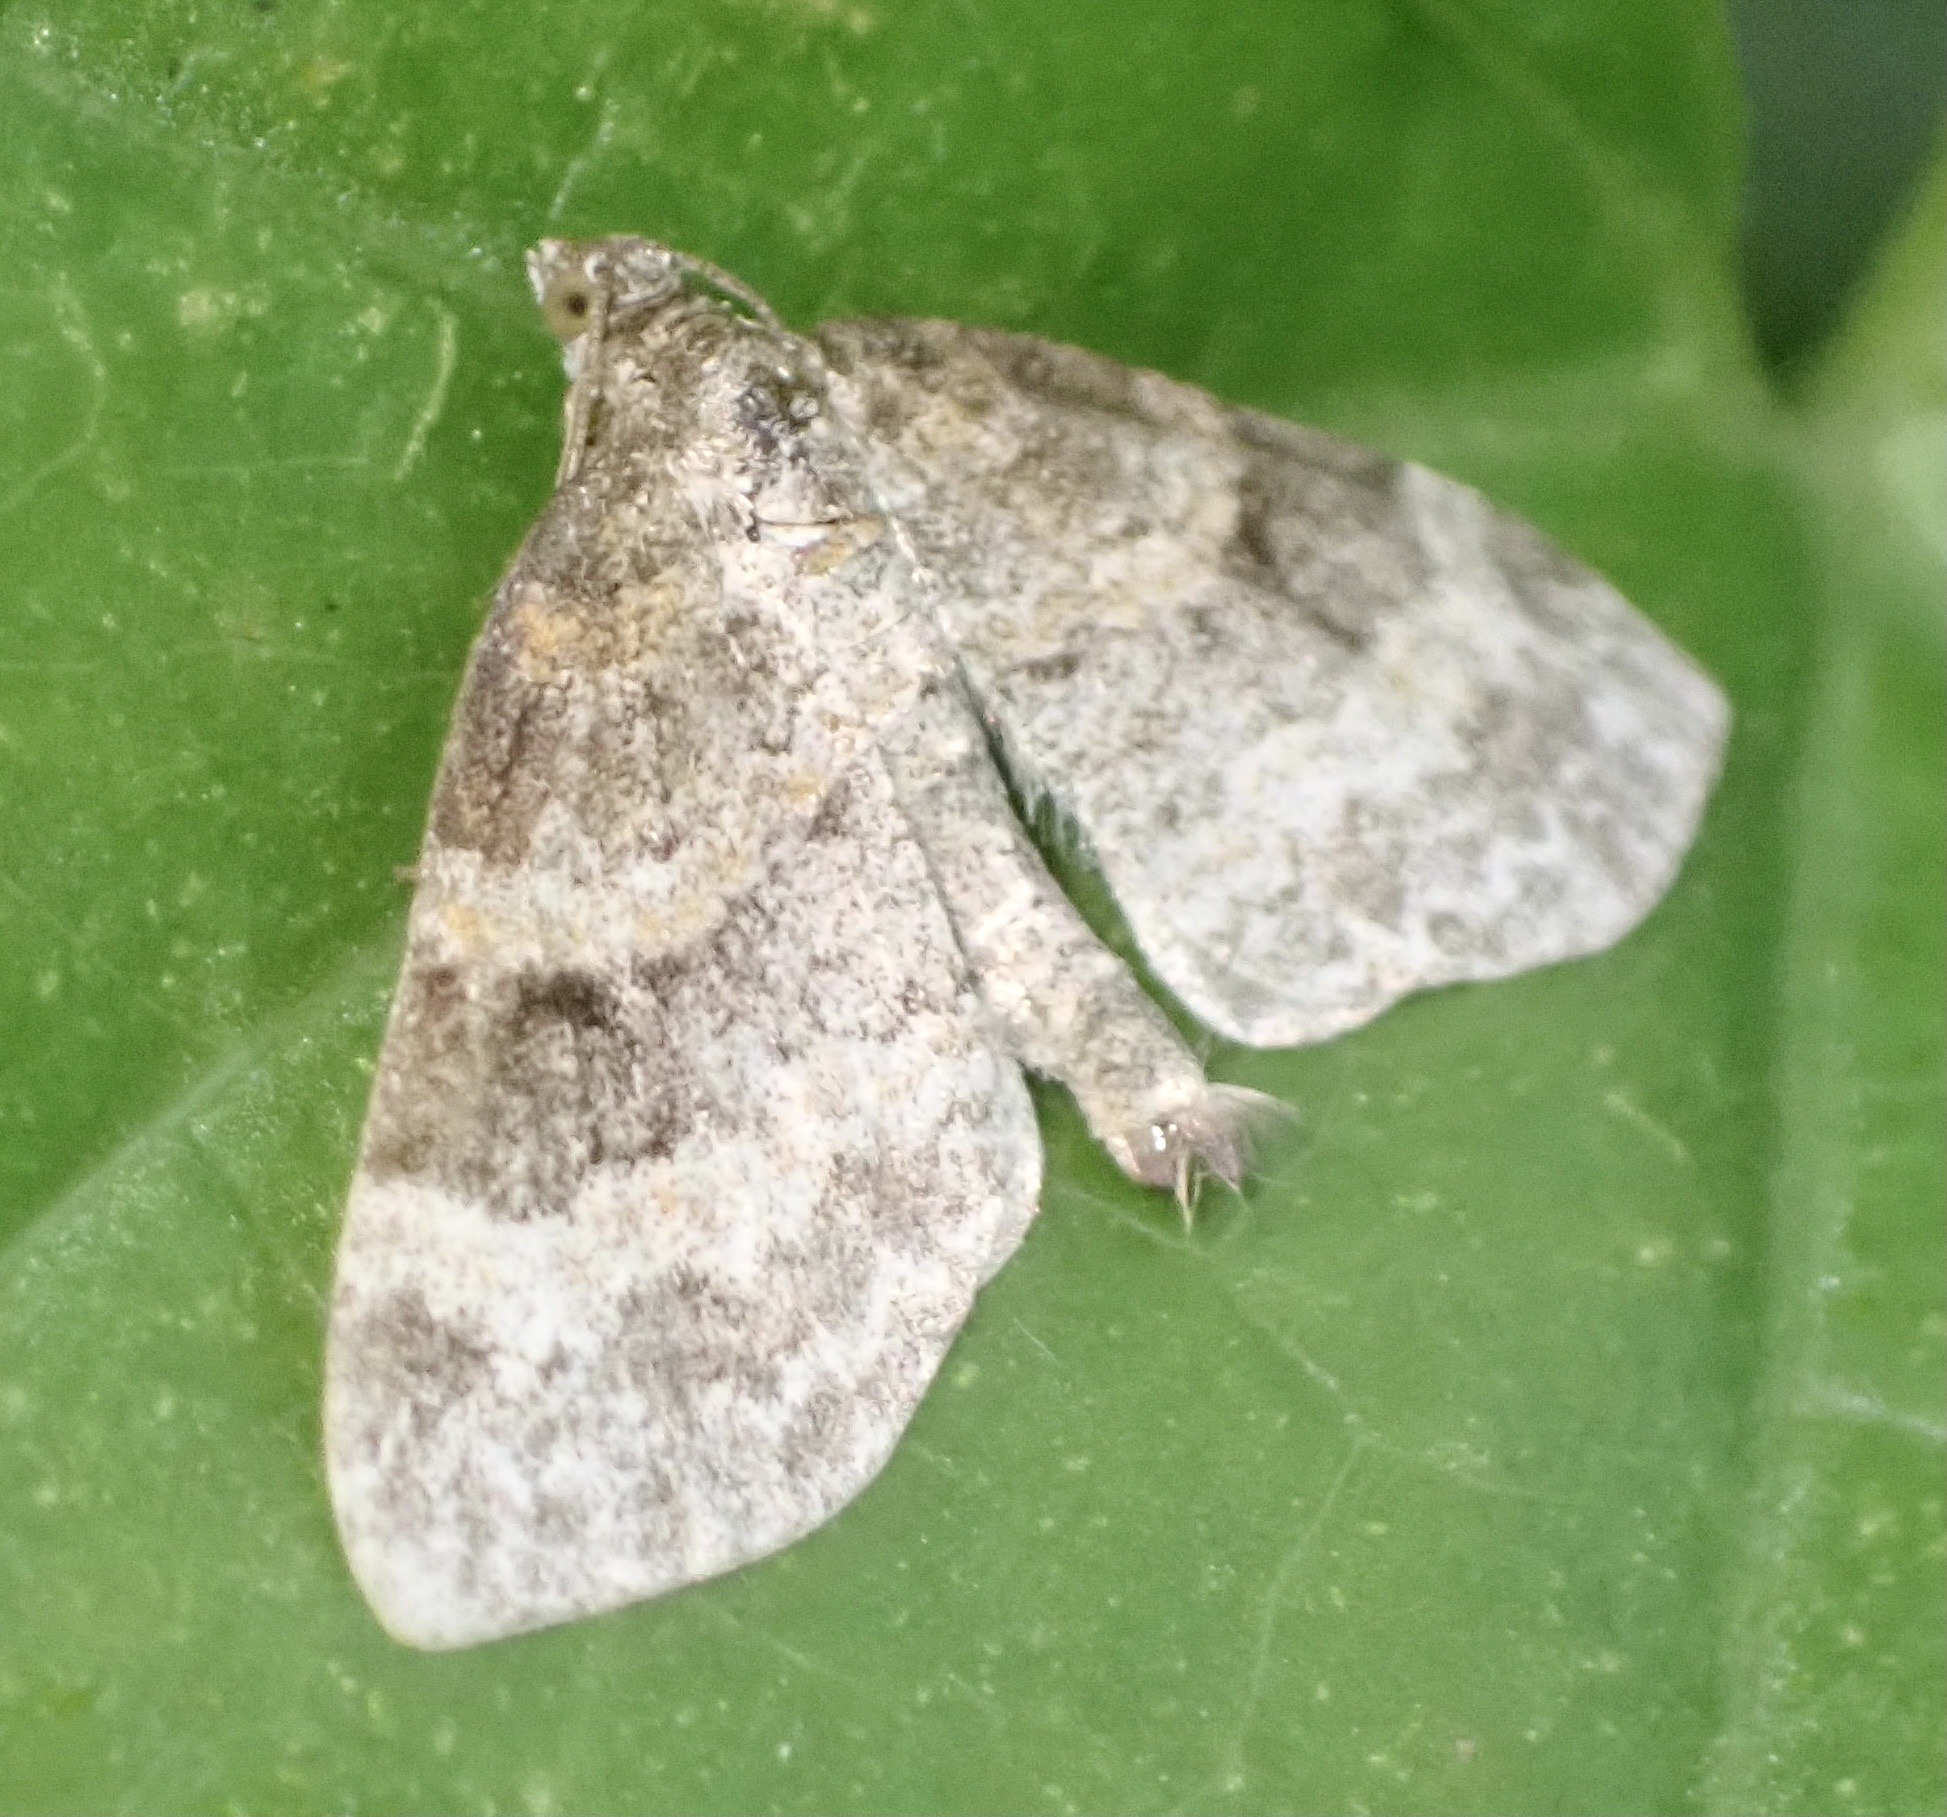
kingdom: Animalia
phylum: Arthropoda
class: Insecta
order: Lepidoptera
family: Geometridae
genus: Pterapherapteryx
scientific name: Pterapherapteryx sexalata
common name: Small seraphim
